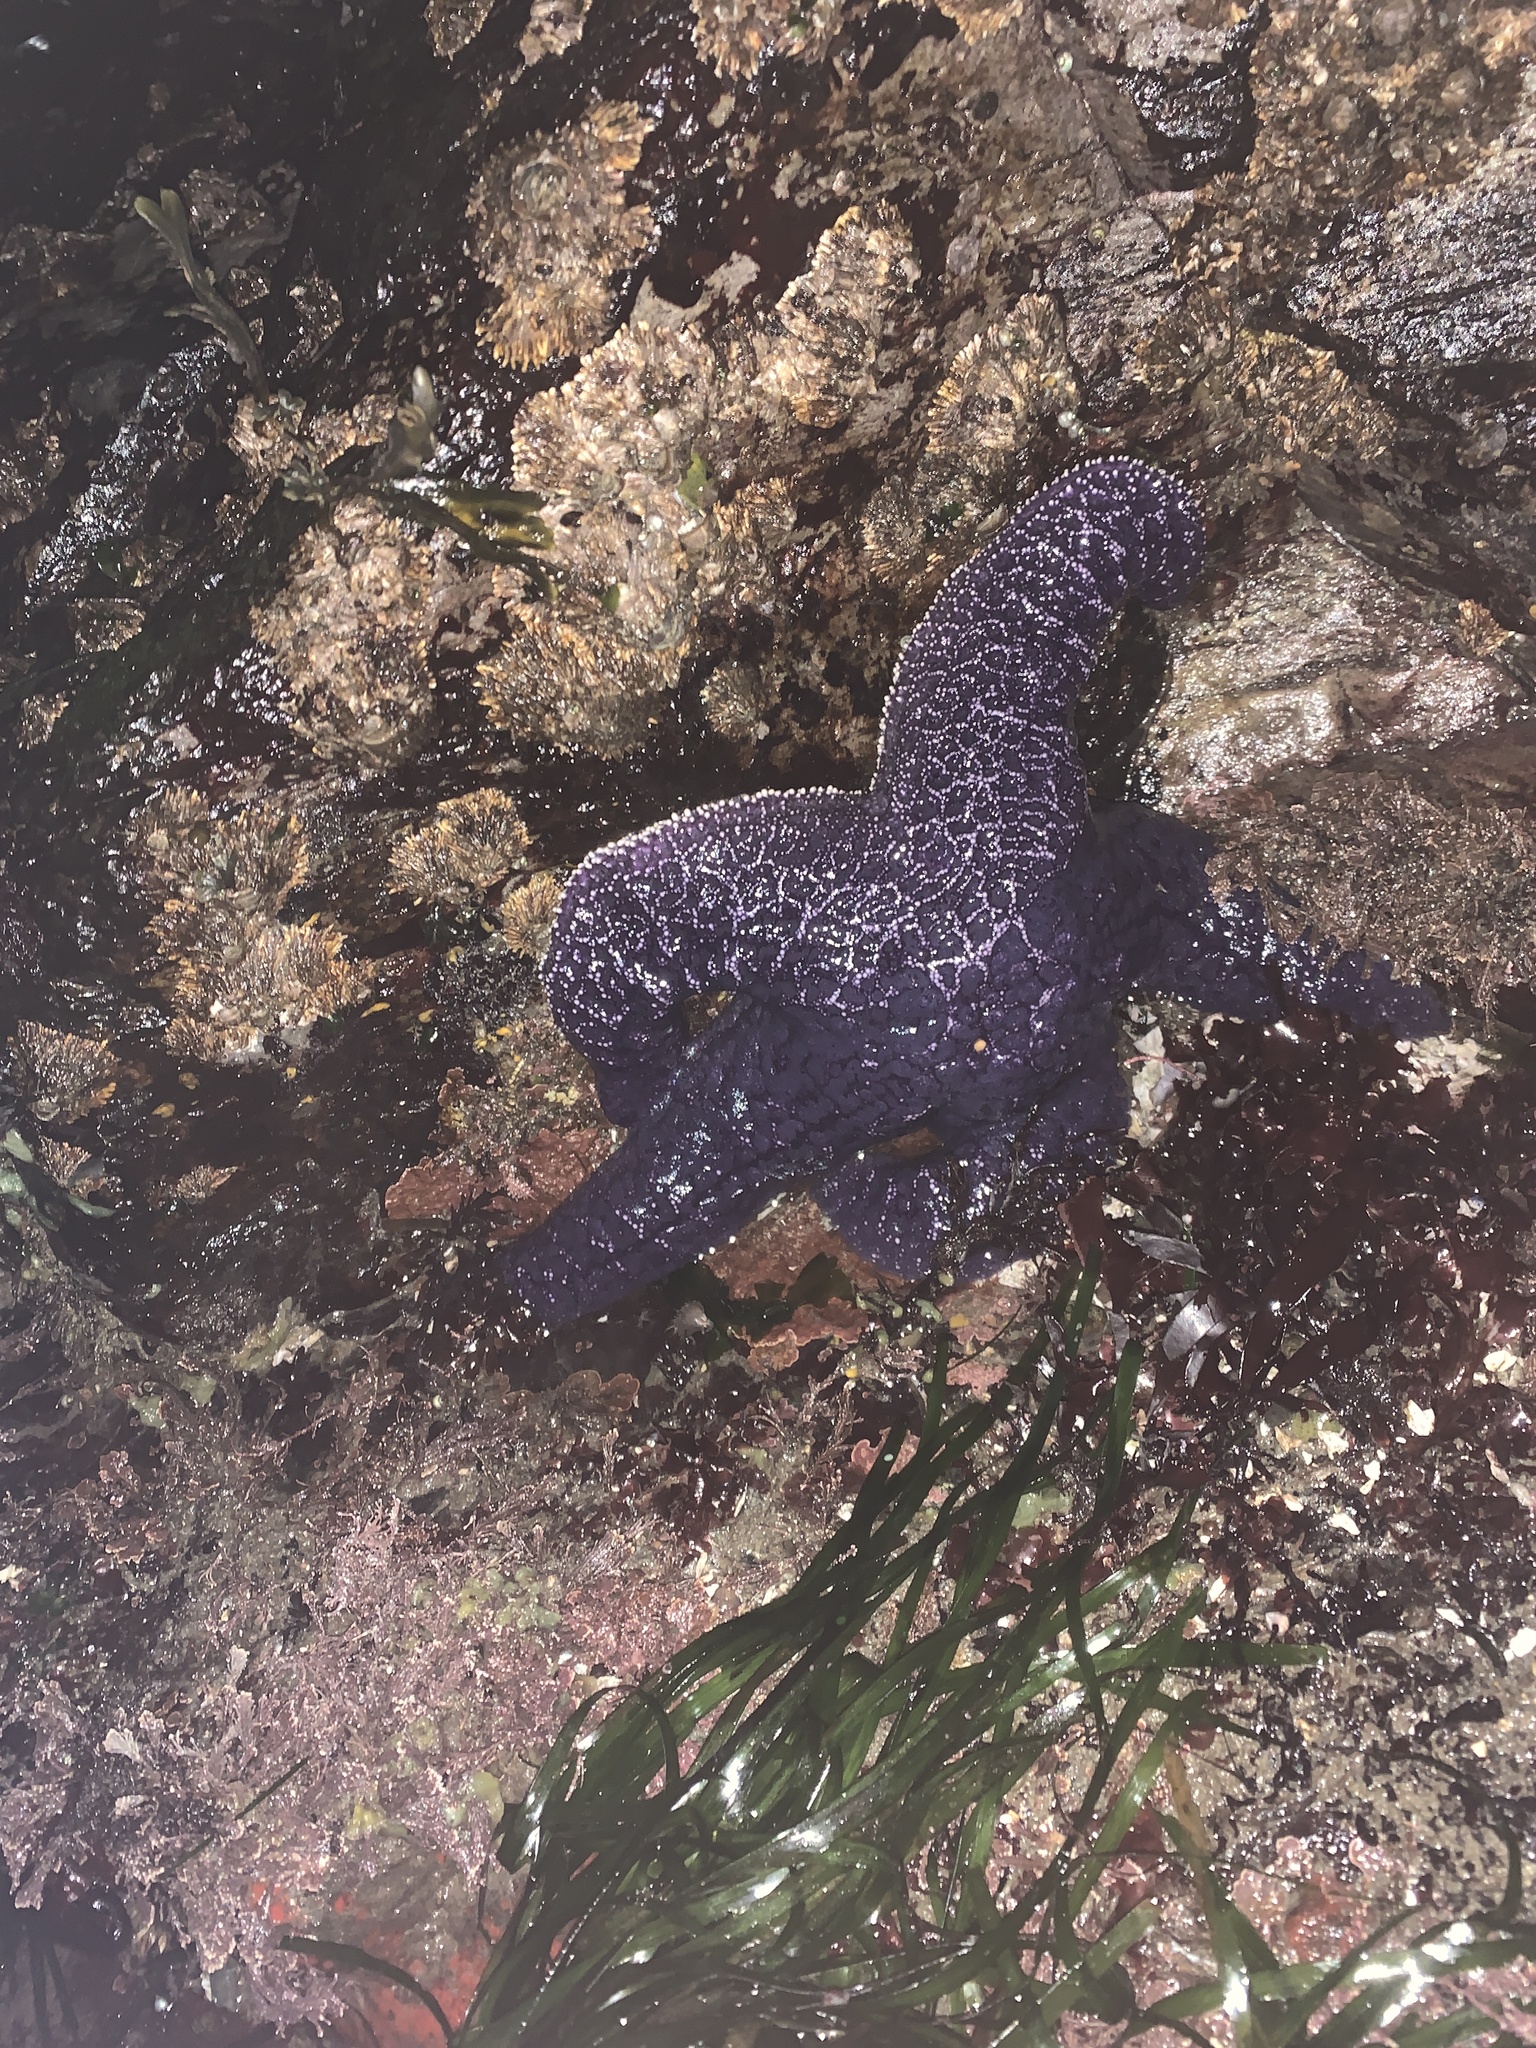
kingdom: Animalia
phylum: Echinodermata
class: Asteroidea
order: Forcipulatida
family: Asteriidae
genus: Pisaster
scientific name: Pisaster ochraceus
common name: Ochre stars
